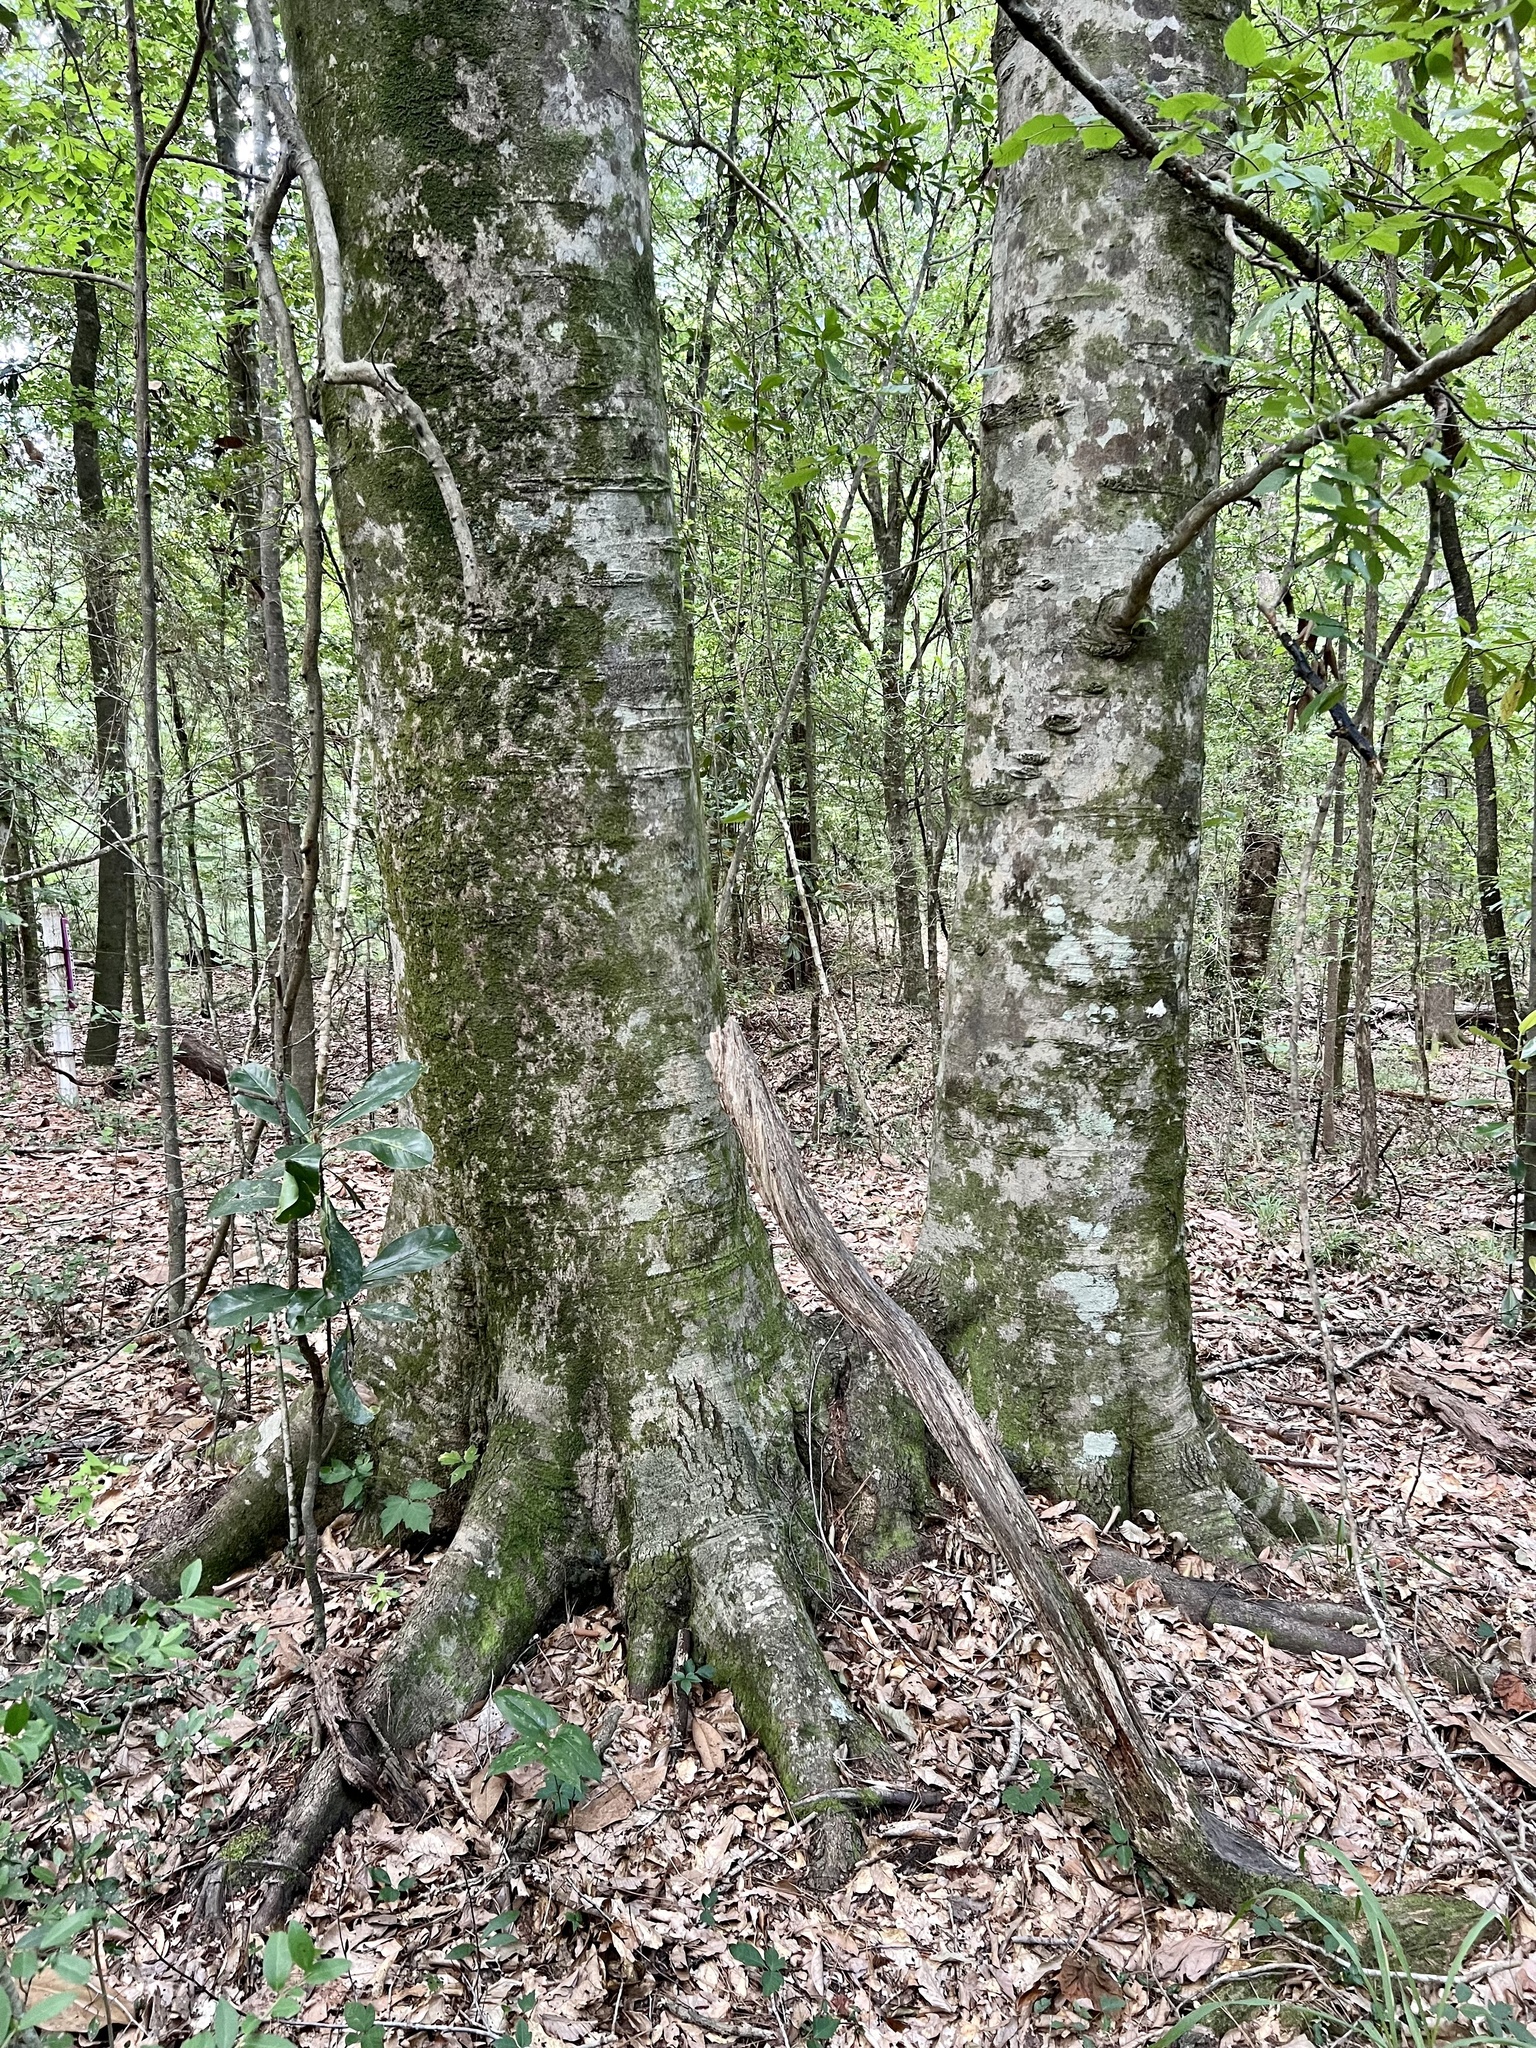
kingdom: Plantae
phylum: Tracheophyta
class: Magnoliopsida
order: Fagales
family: Fagaceae
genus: Fagus
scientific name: Fagus grandifolia
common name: American beech
